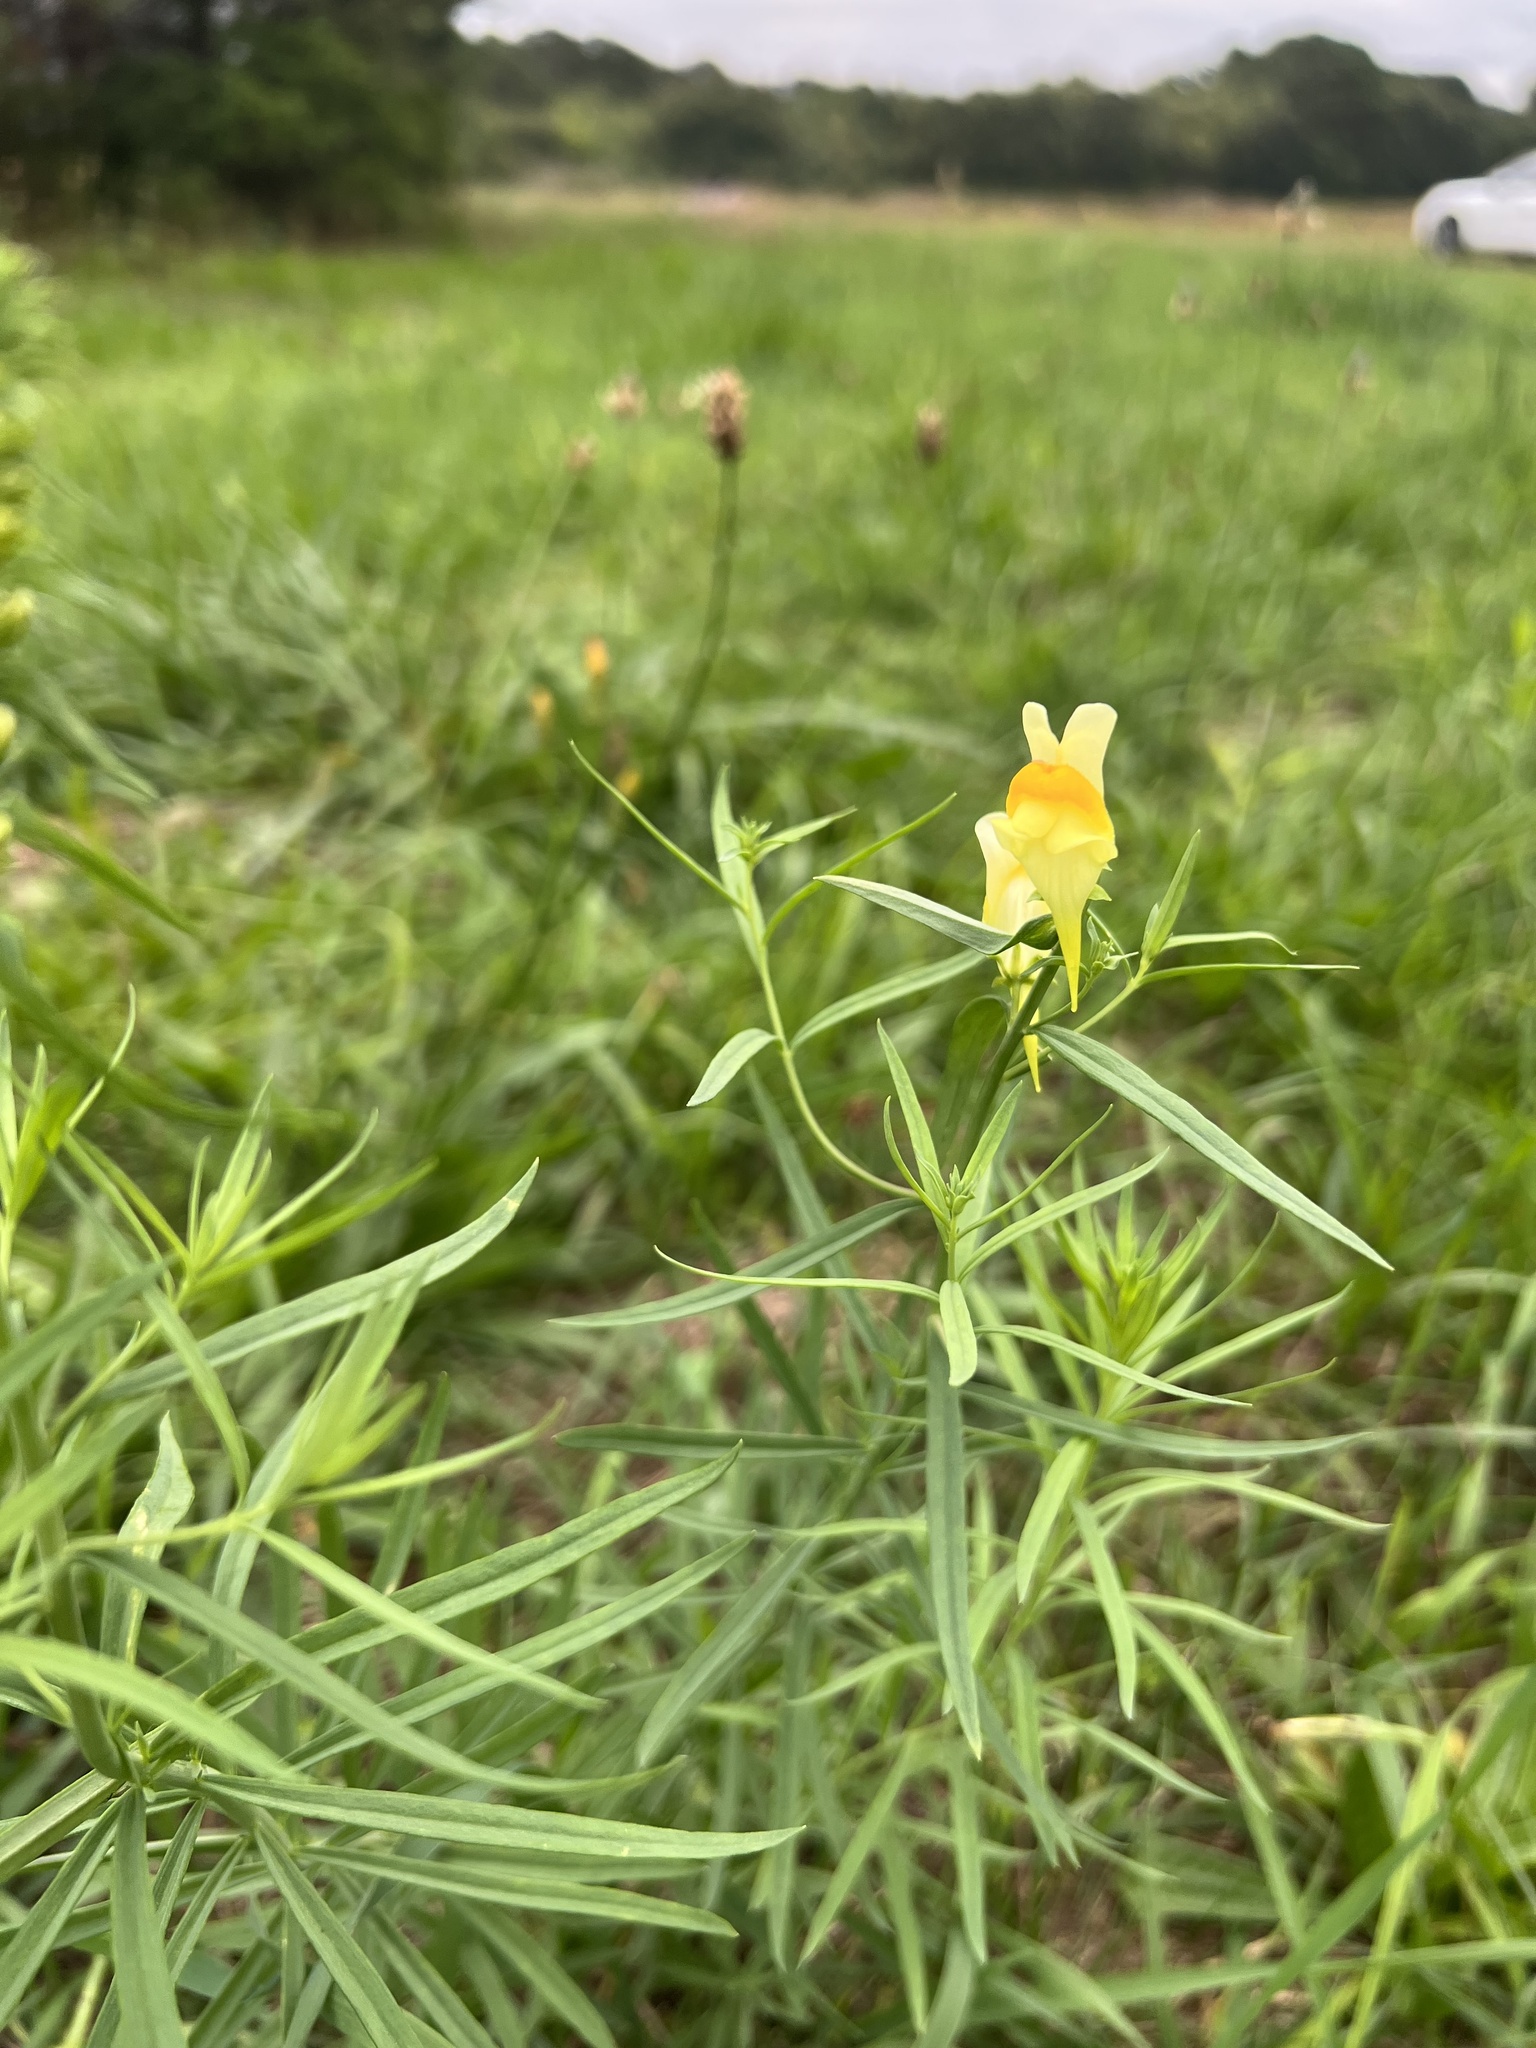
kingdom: Plantae
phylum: Tracheophyta
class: Magnoliopsida
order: Lamiales
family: Plantaginaceae
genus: Linaria
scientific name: Linaria vulgaris
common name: Butter and eggs
